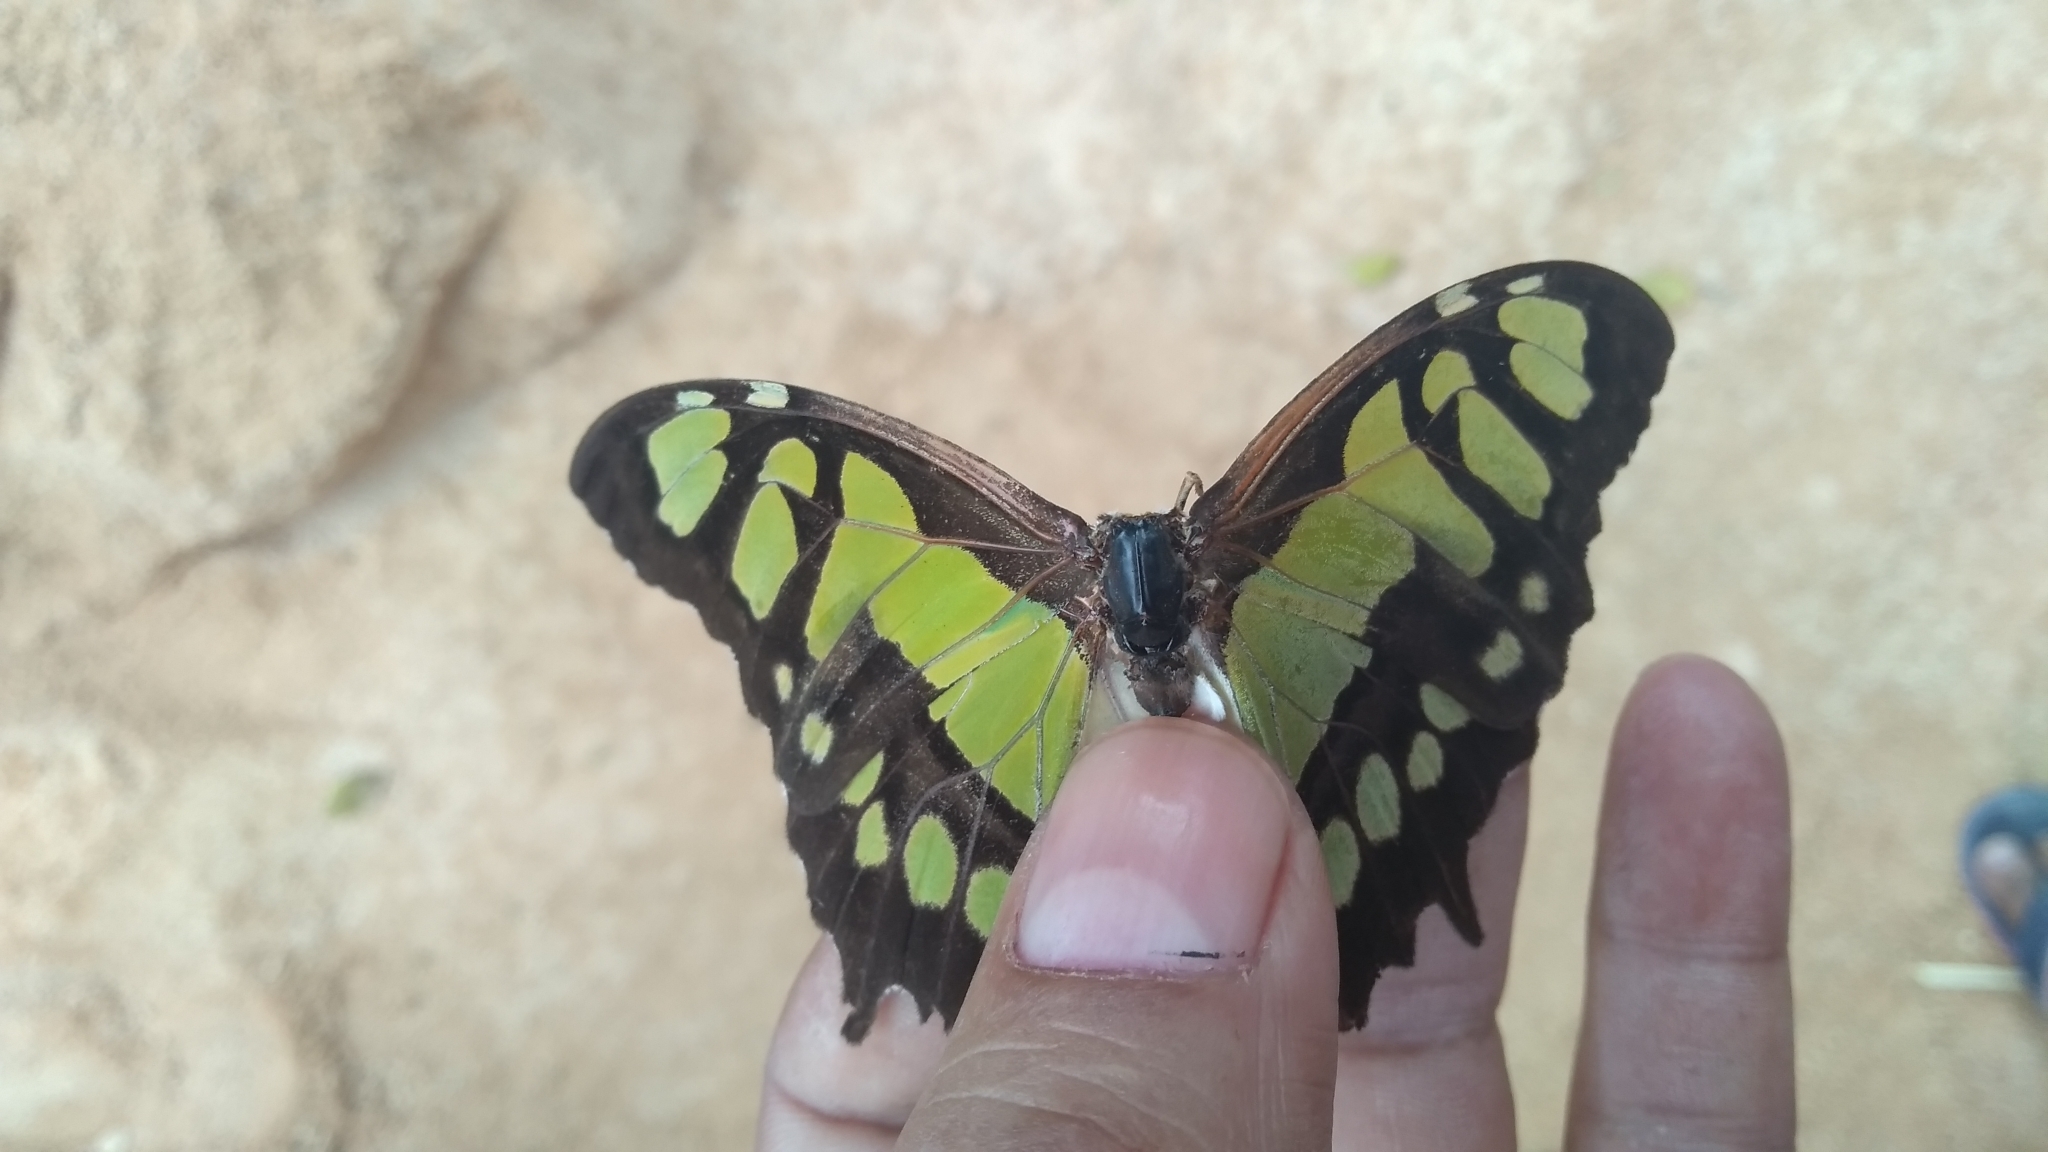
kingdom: Animalia
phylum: Arthropoda
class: Insecta
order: Lepidoptera
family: Nymphalidae
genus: Siproeta
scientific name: Siproeta stelenes
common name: Malachite
